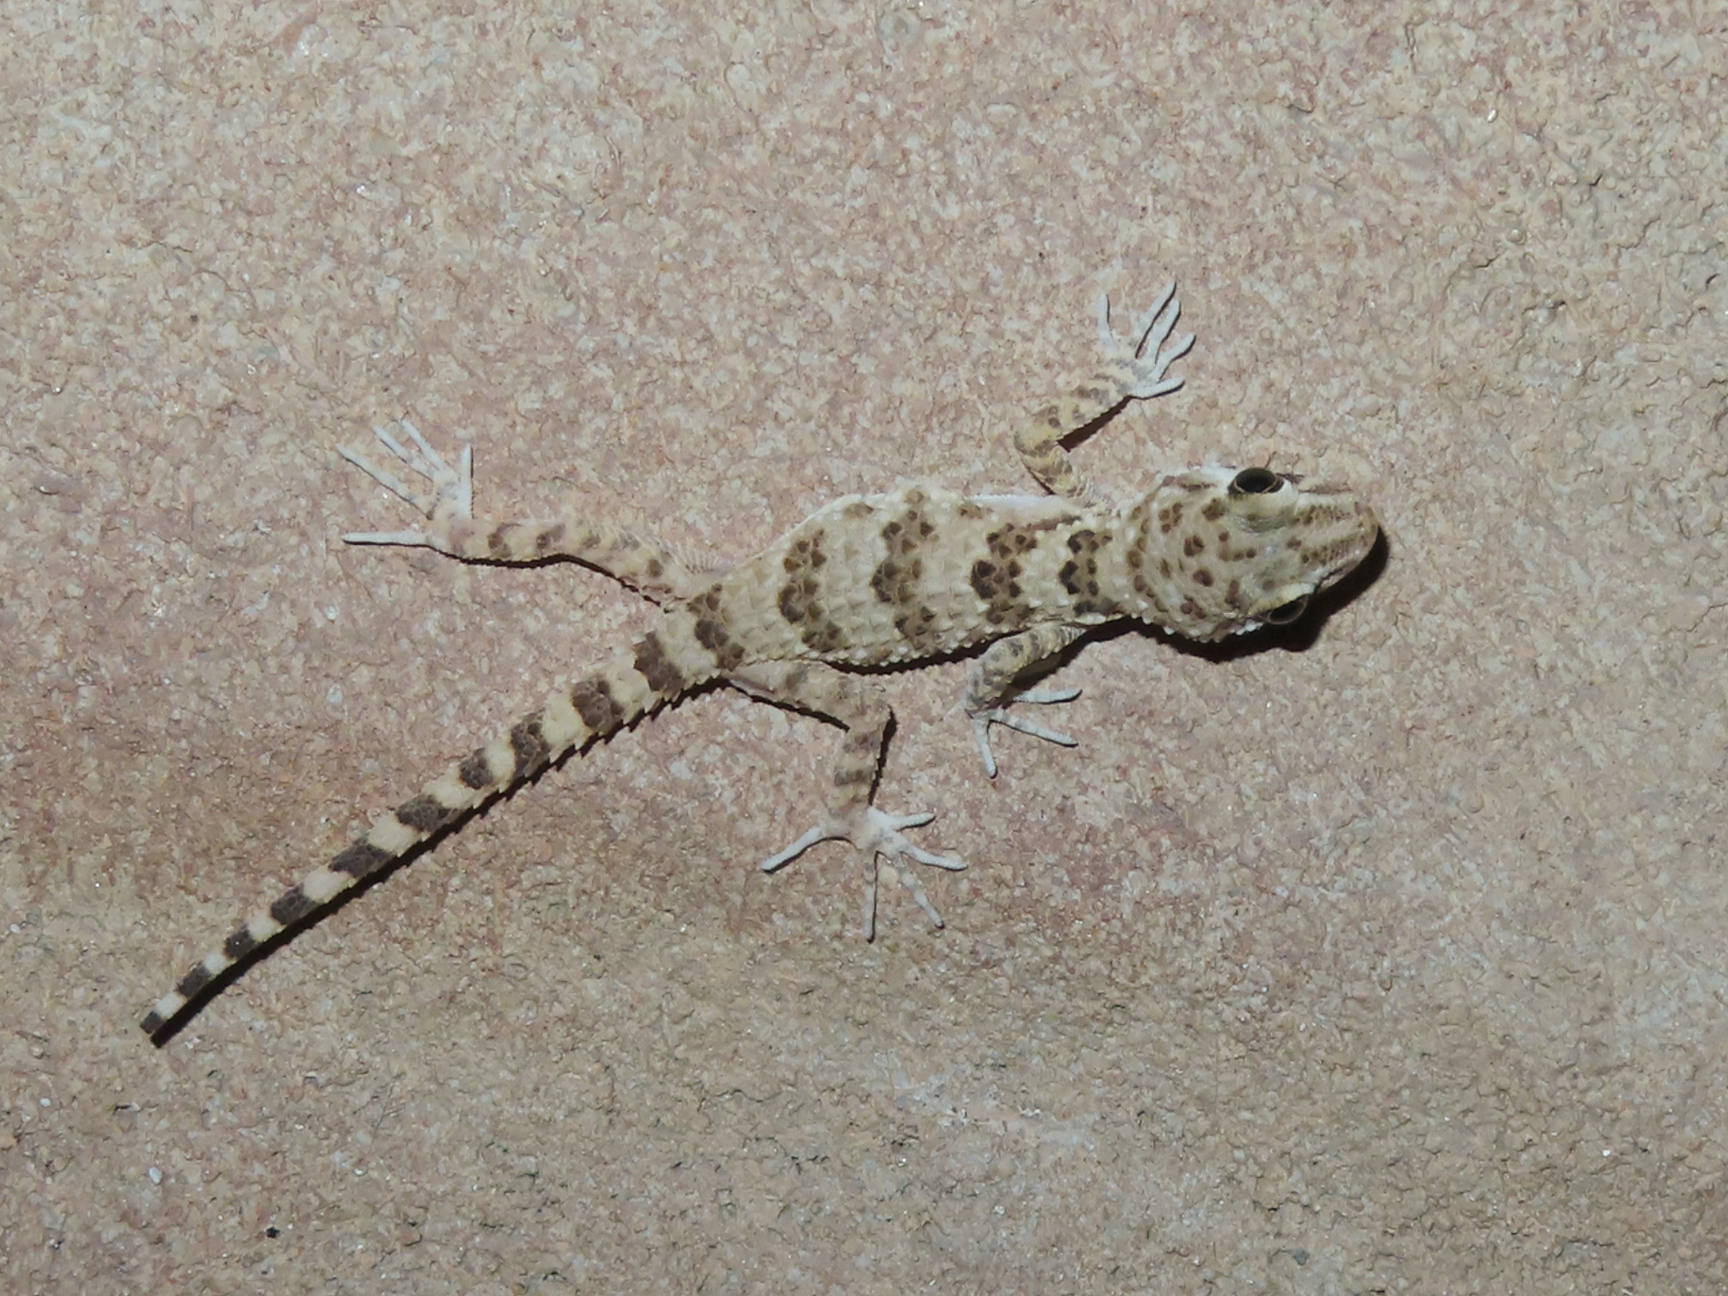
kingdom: Animalia
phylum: Chordata
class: Squamata
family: Gekkonidae
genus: Tenuidactylus
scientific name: Tenuidactylus caspius
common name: Caspian bent-toed gecko
